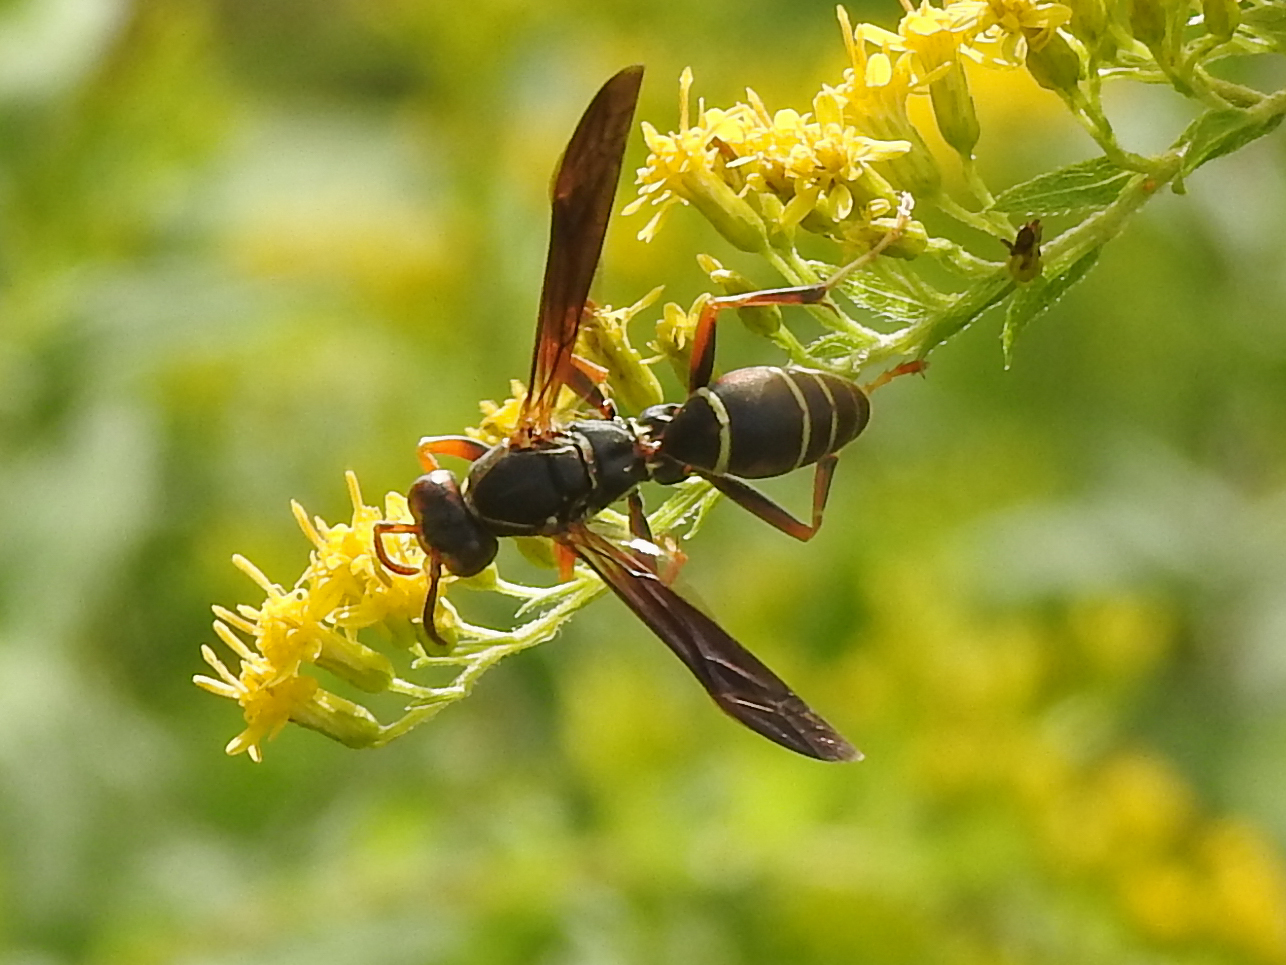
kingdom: Animalia
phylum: Arthropoda
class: Insecta
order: Hymenoptera
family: Eumenidae
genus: Polistes
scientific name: Polistes fuscatus
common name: Dark paper wasp
